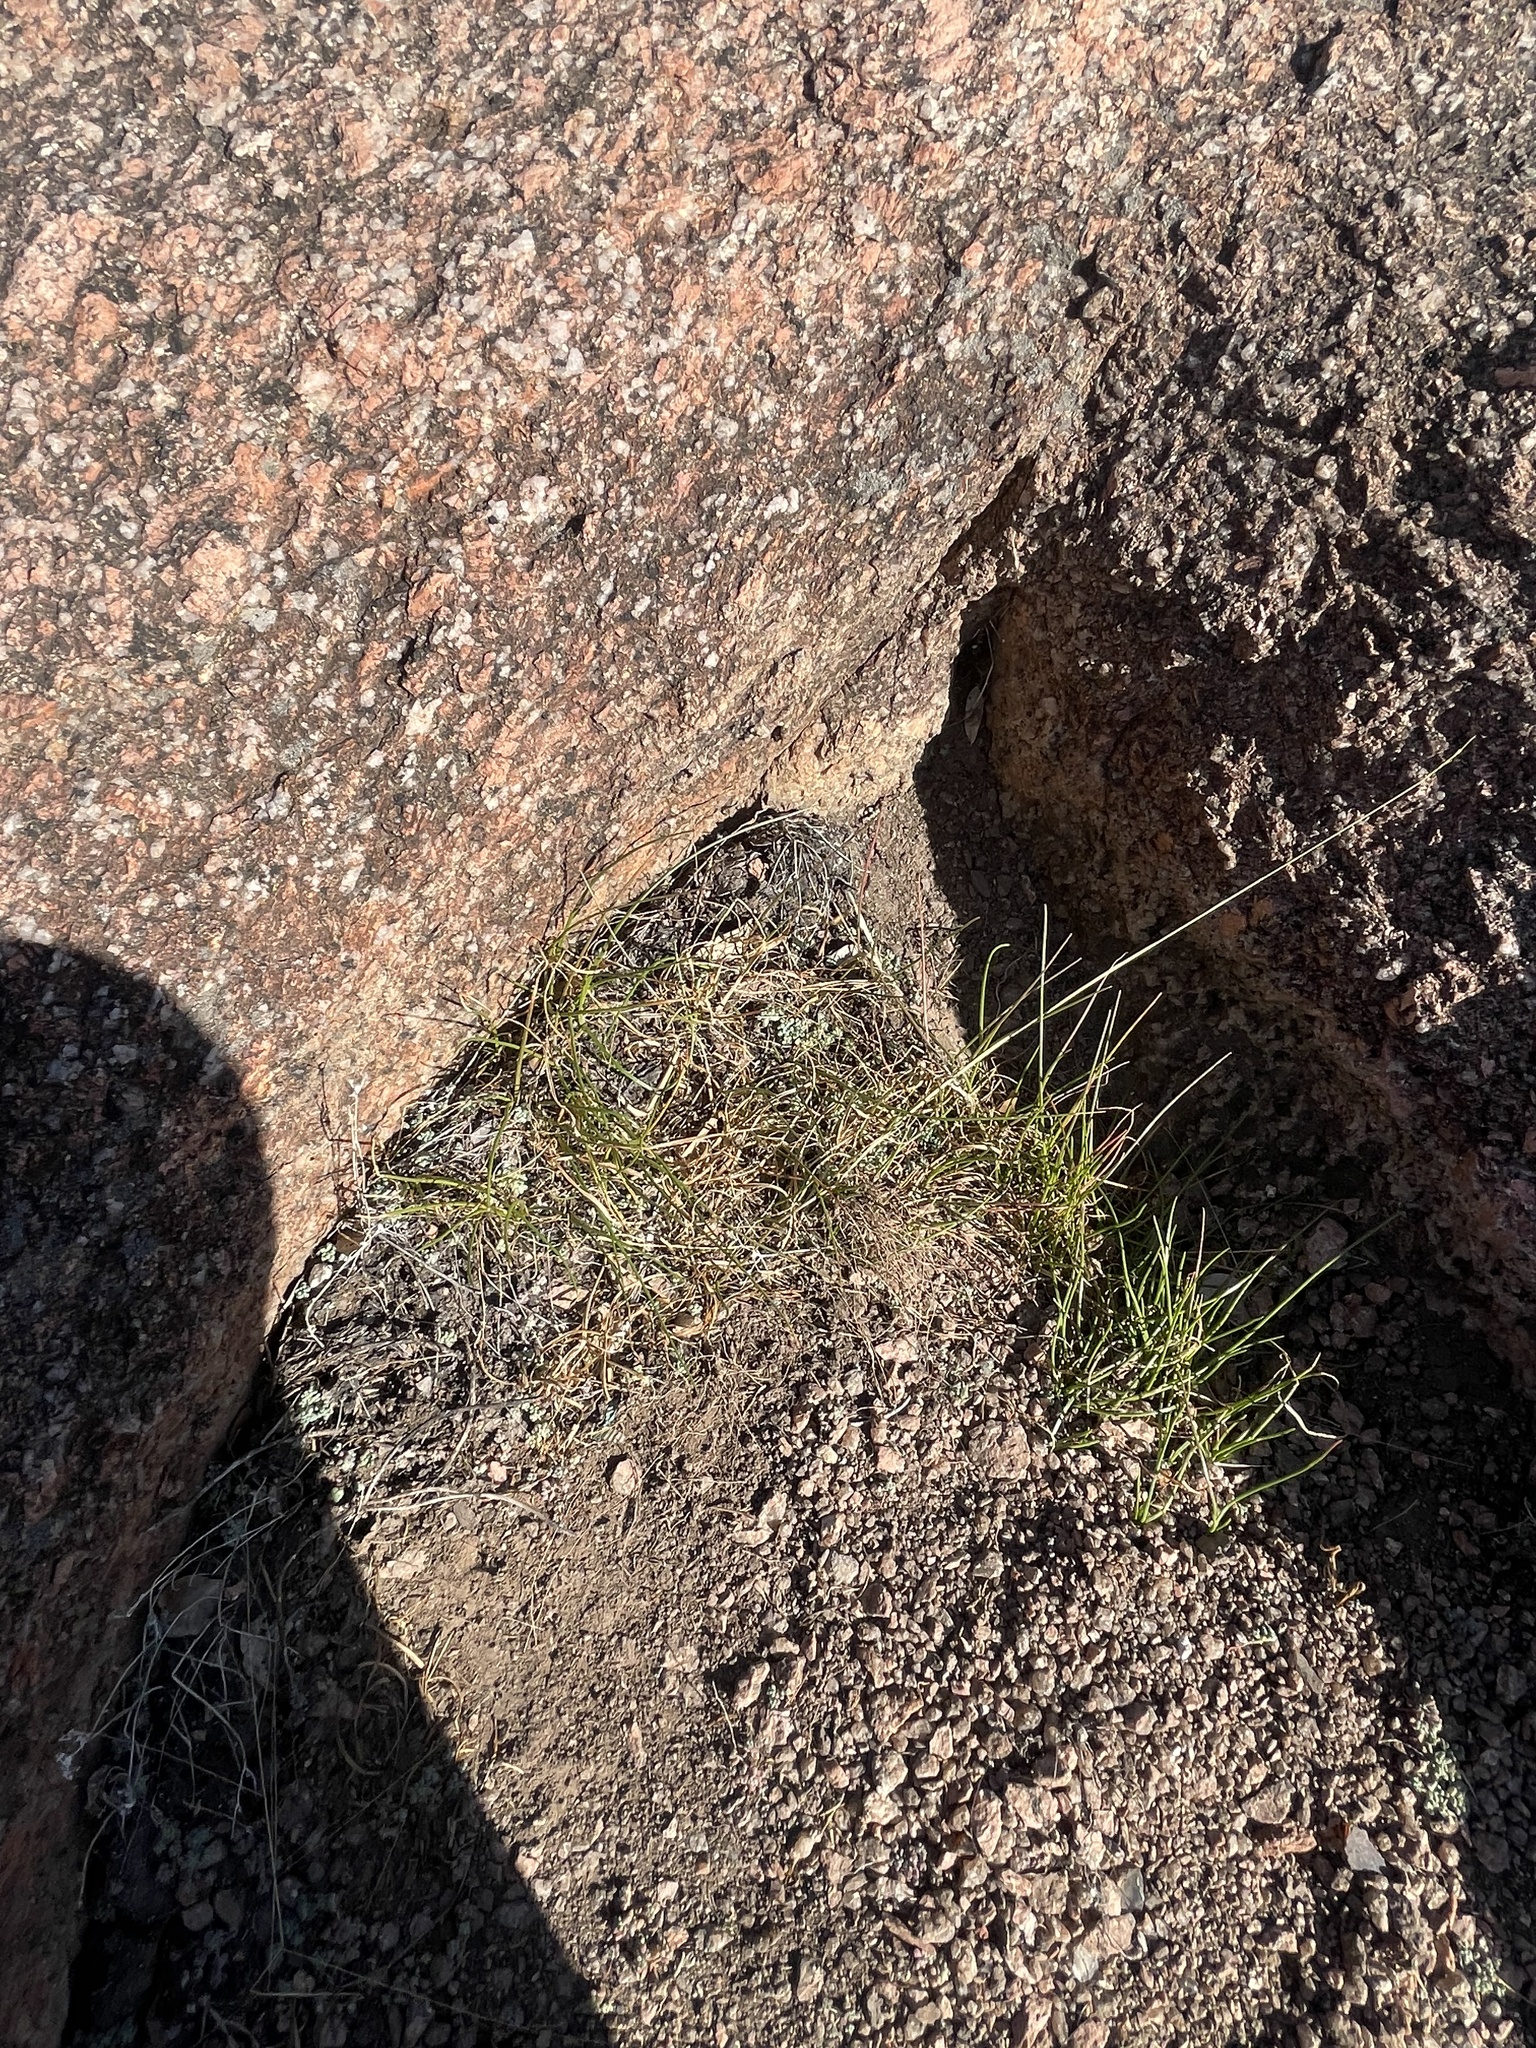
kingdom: Plantae
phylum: Tracheophyta
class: Magnoliopsida
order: Saxifragales
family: Crassulaceae
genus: Sedum
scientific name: Sedum nuttallii
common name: Yellow stonecrop
